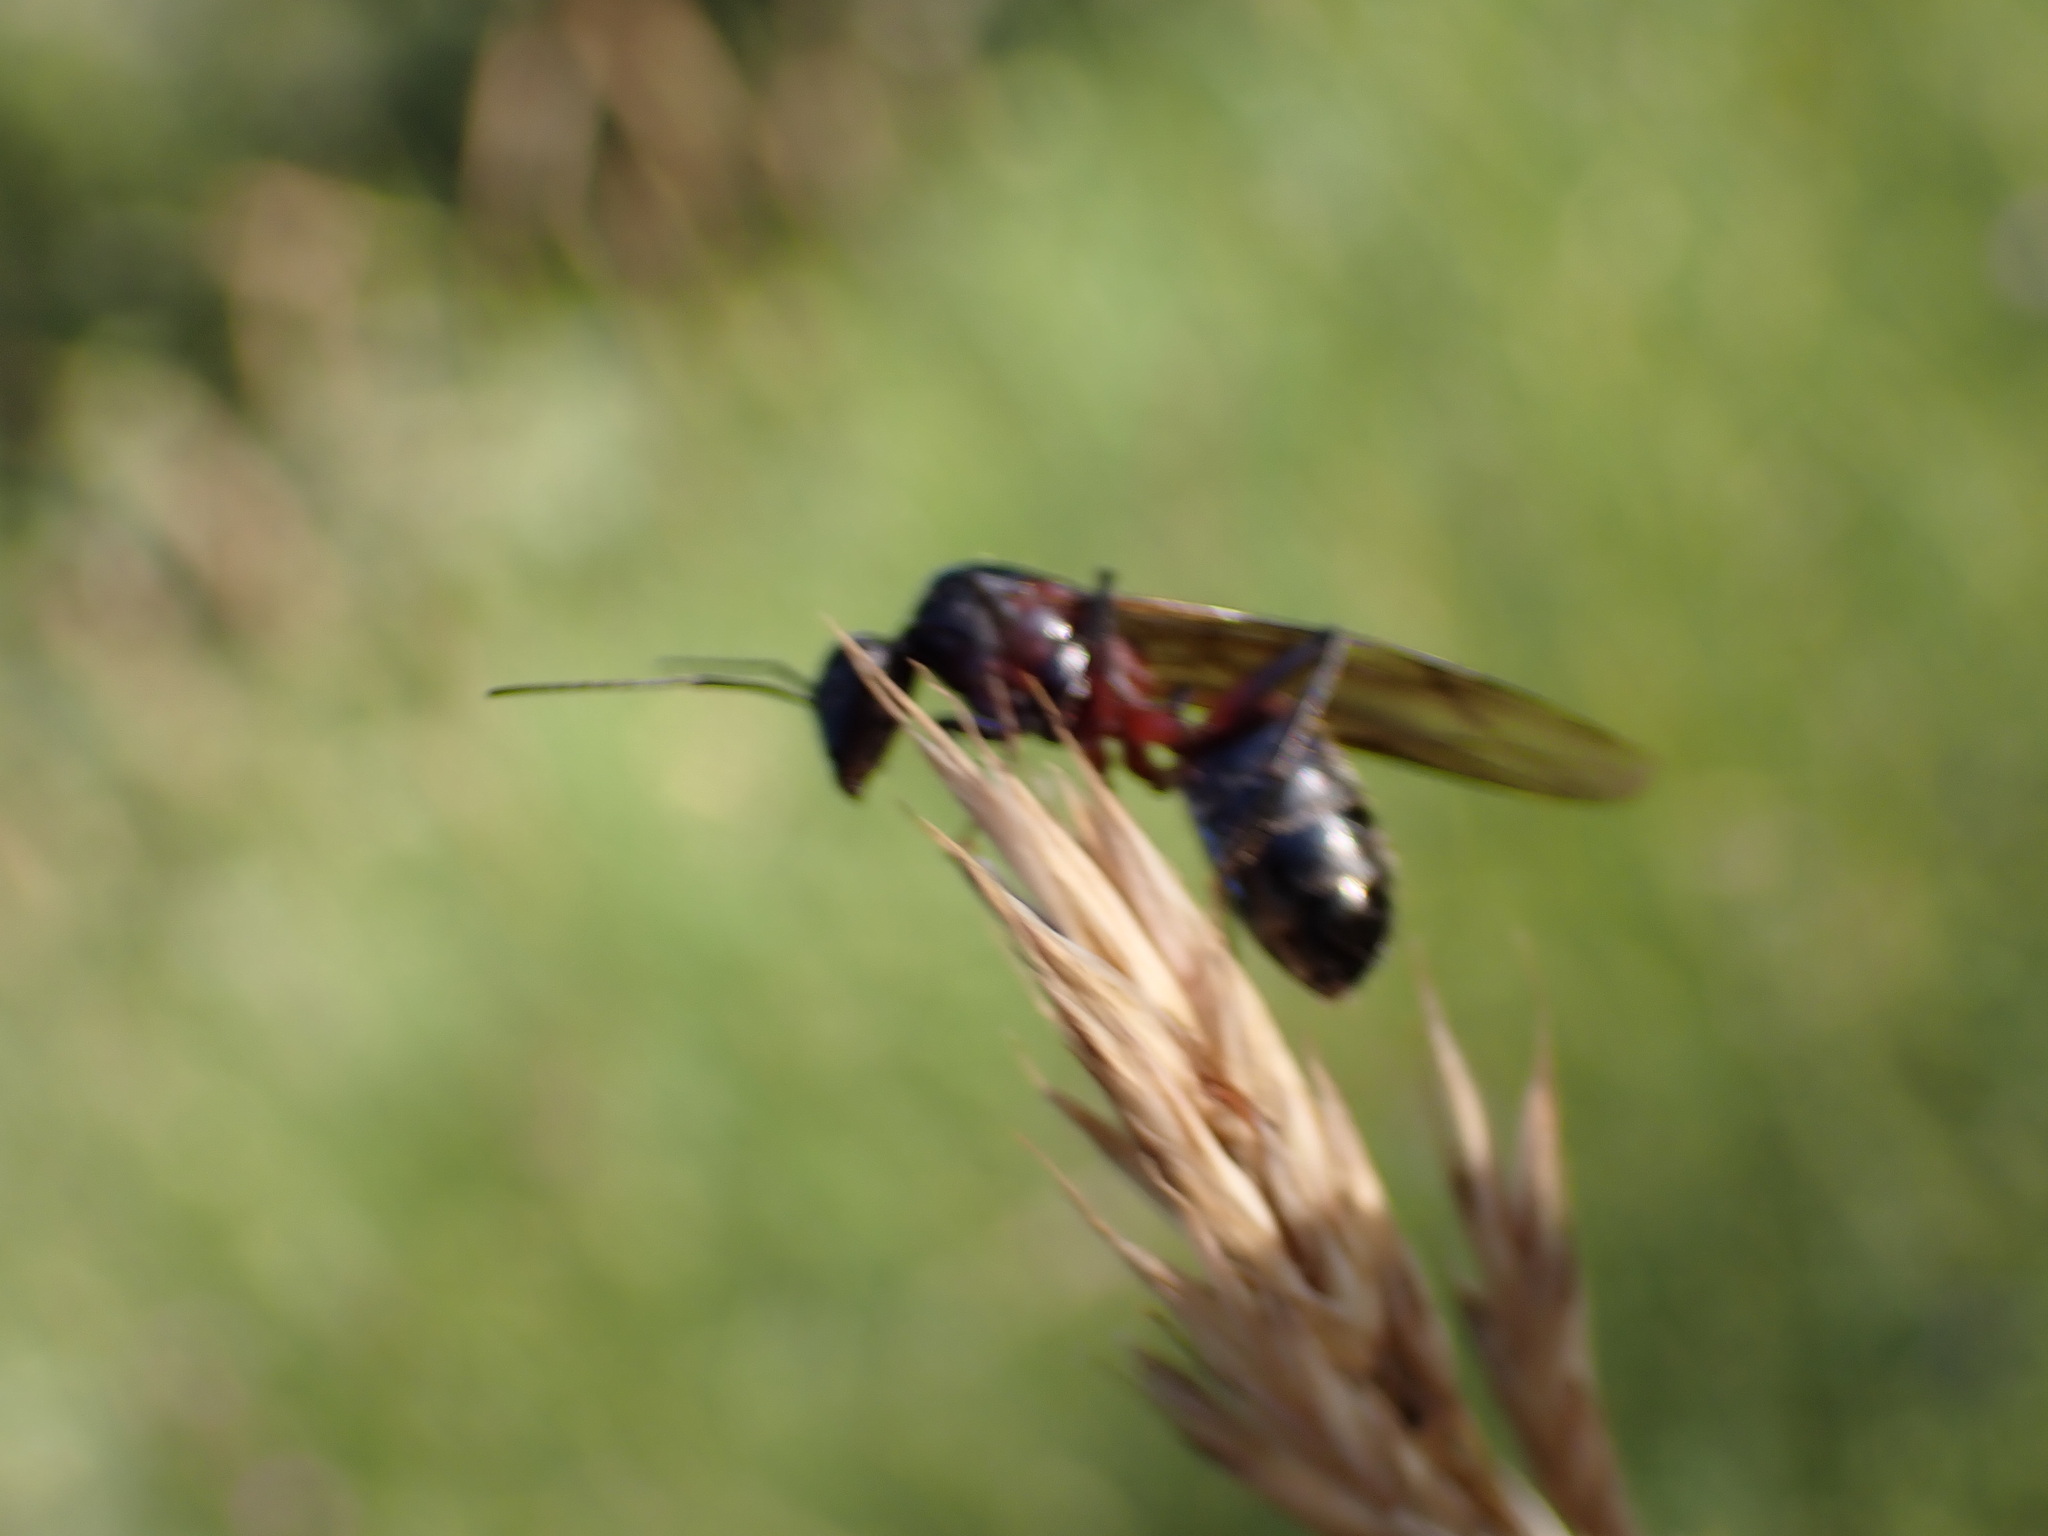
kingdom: Animalia
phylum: Arthropoda
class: Insecta
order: Hymenoptera
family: Formicidae
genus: Camponotus
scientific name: Camponotus cruentatus
